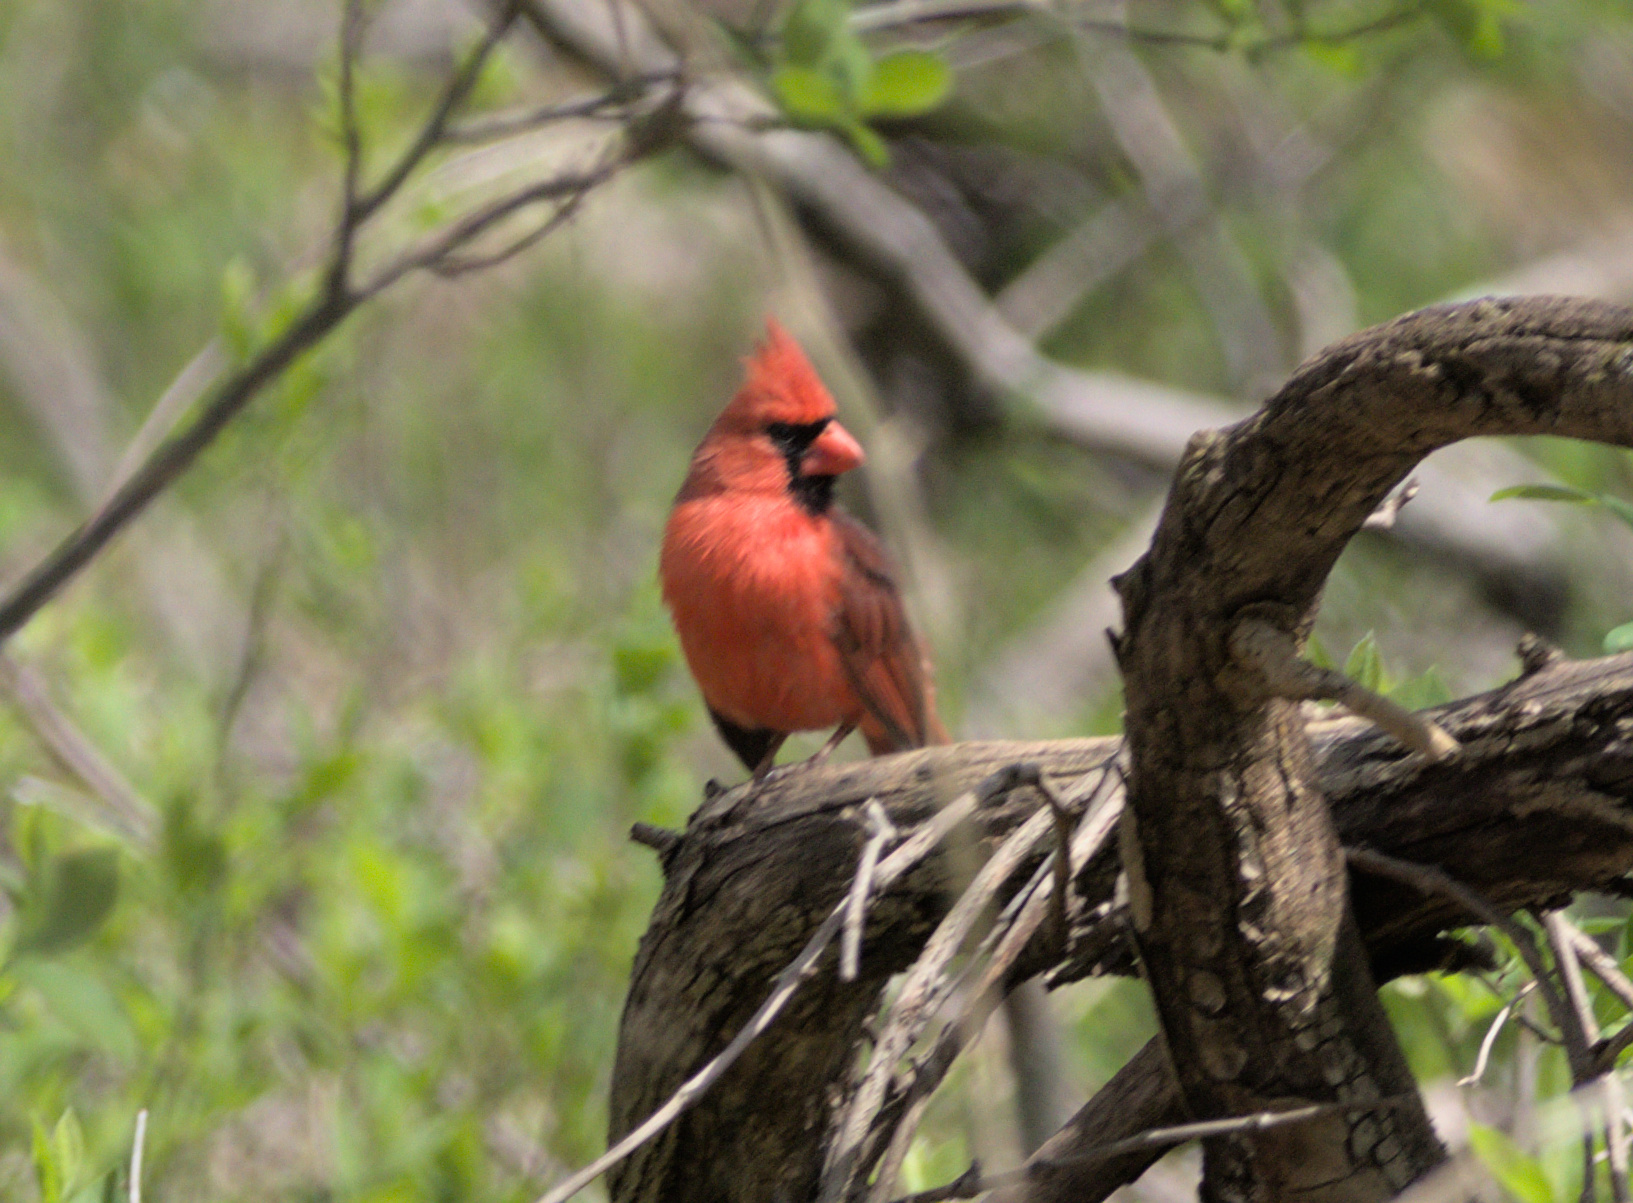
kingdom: Animalia
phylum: Chordata
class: Aves
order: Passeriformes
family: Cardinalidae
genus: Cardinalis
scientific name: Cardinalis cardinalis
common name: Northern cardinal
